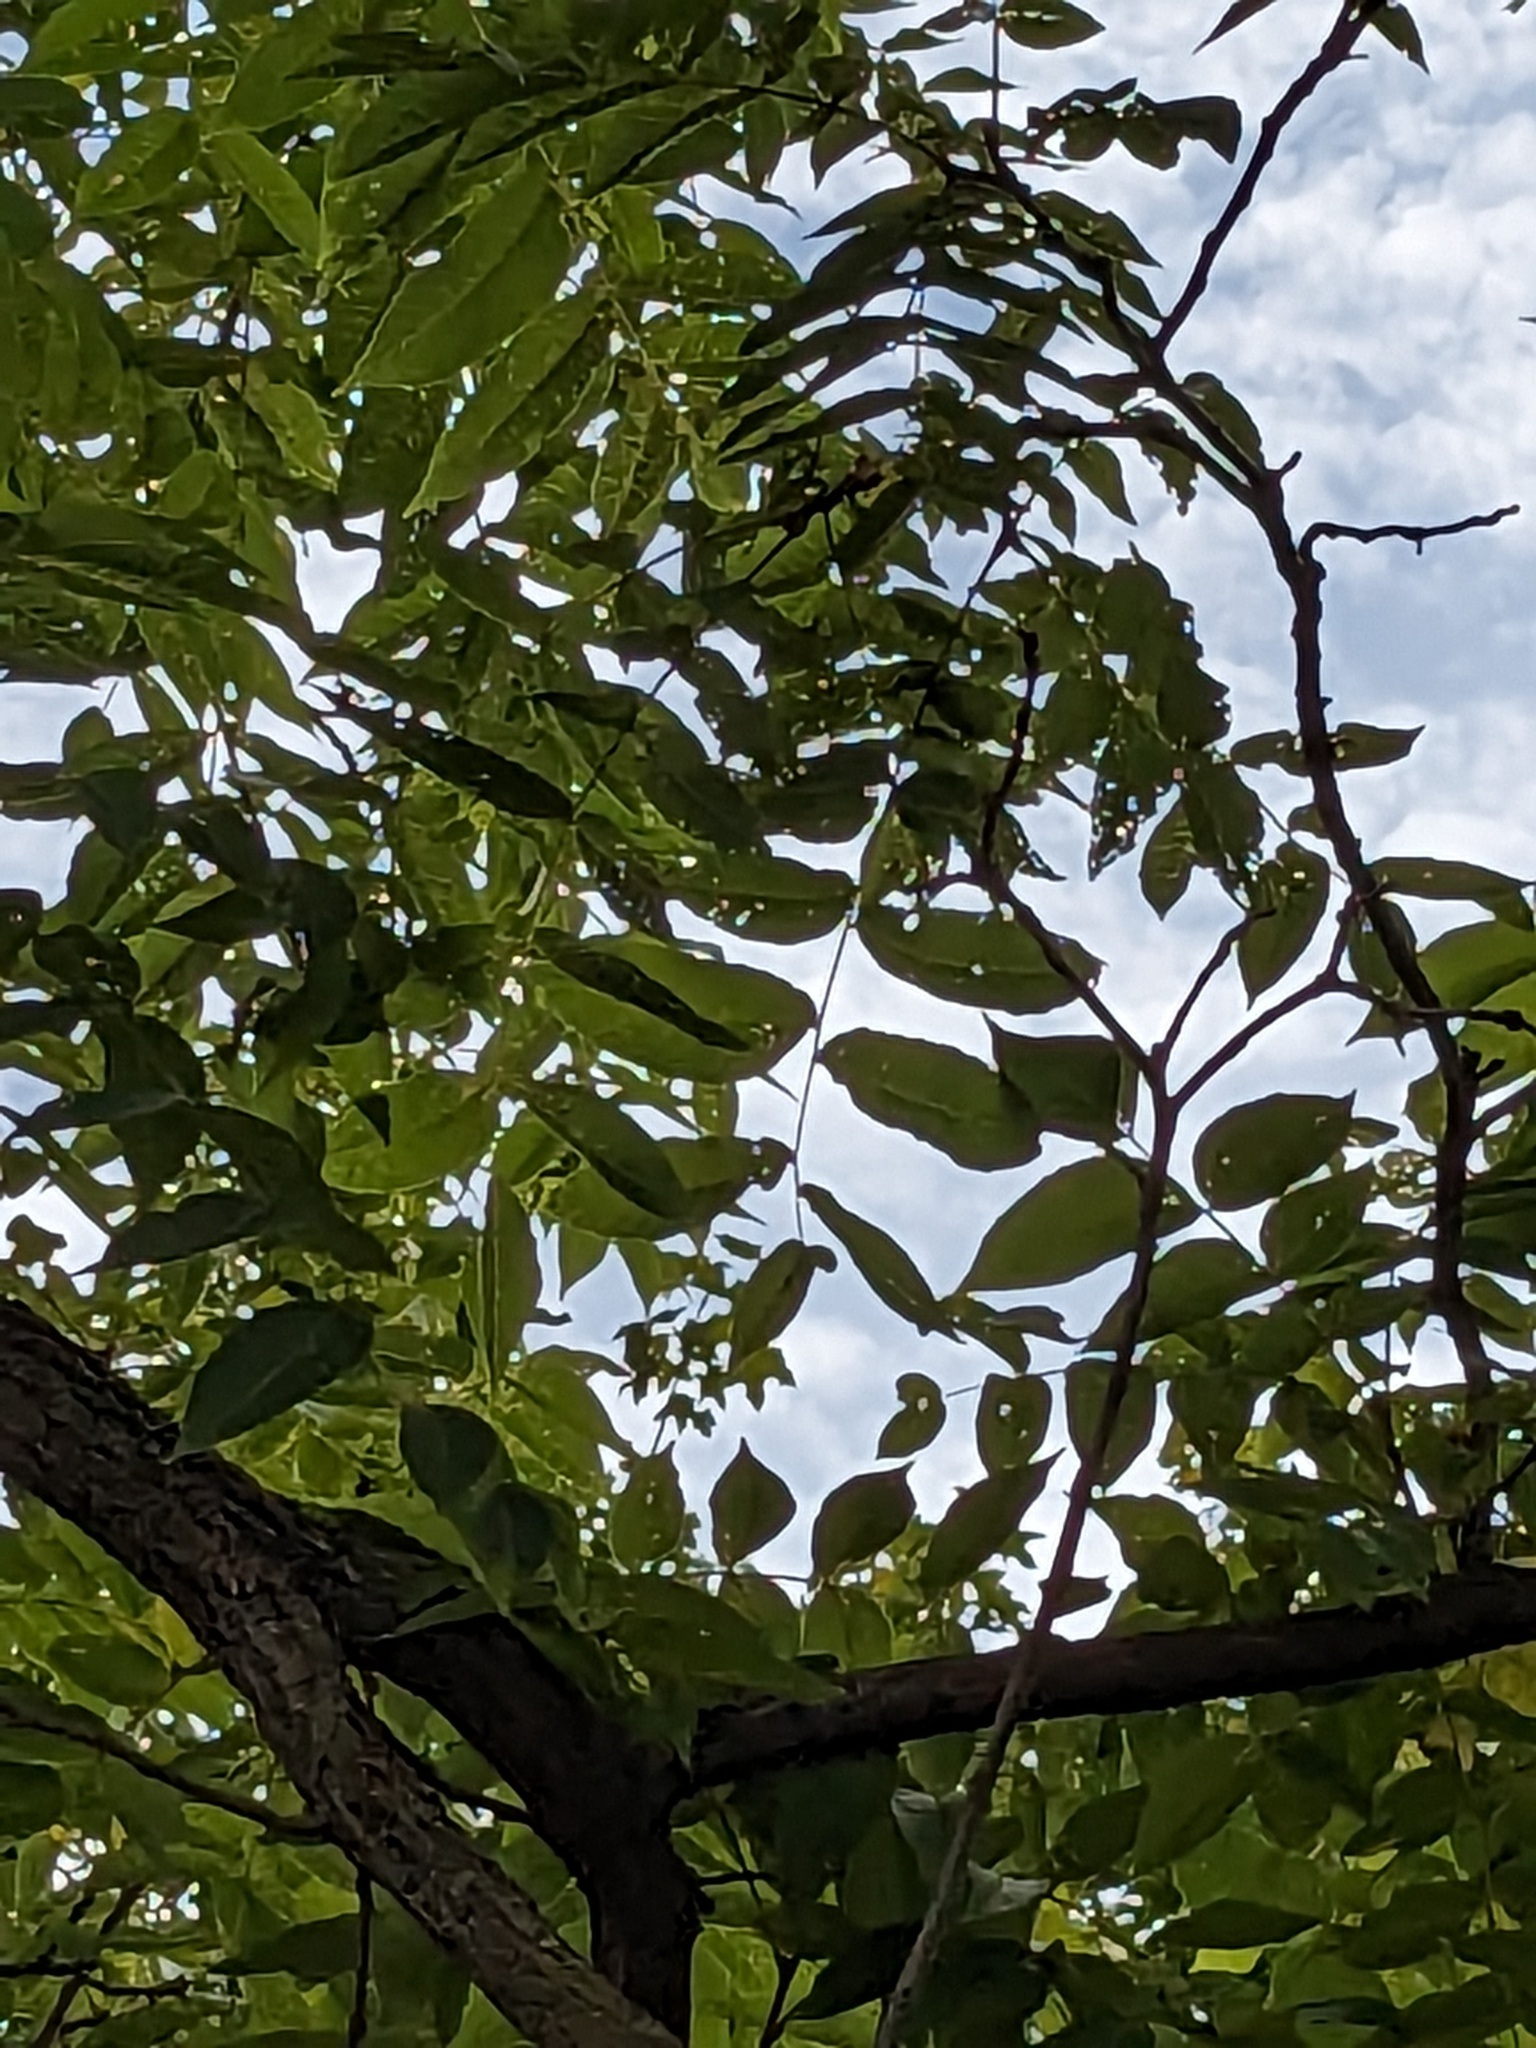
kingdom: Plantae
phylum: Tracheophyta
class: Magnoliopsida
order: Fagales
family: Juglandaceae
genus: Juglans
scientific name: Juglans nigra
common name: Black walnut
